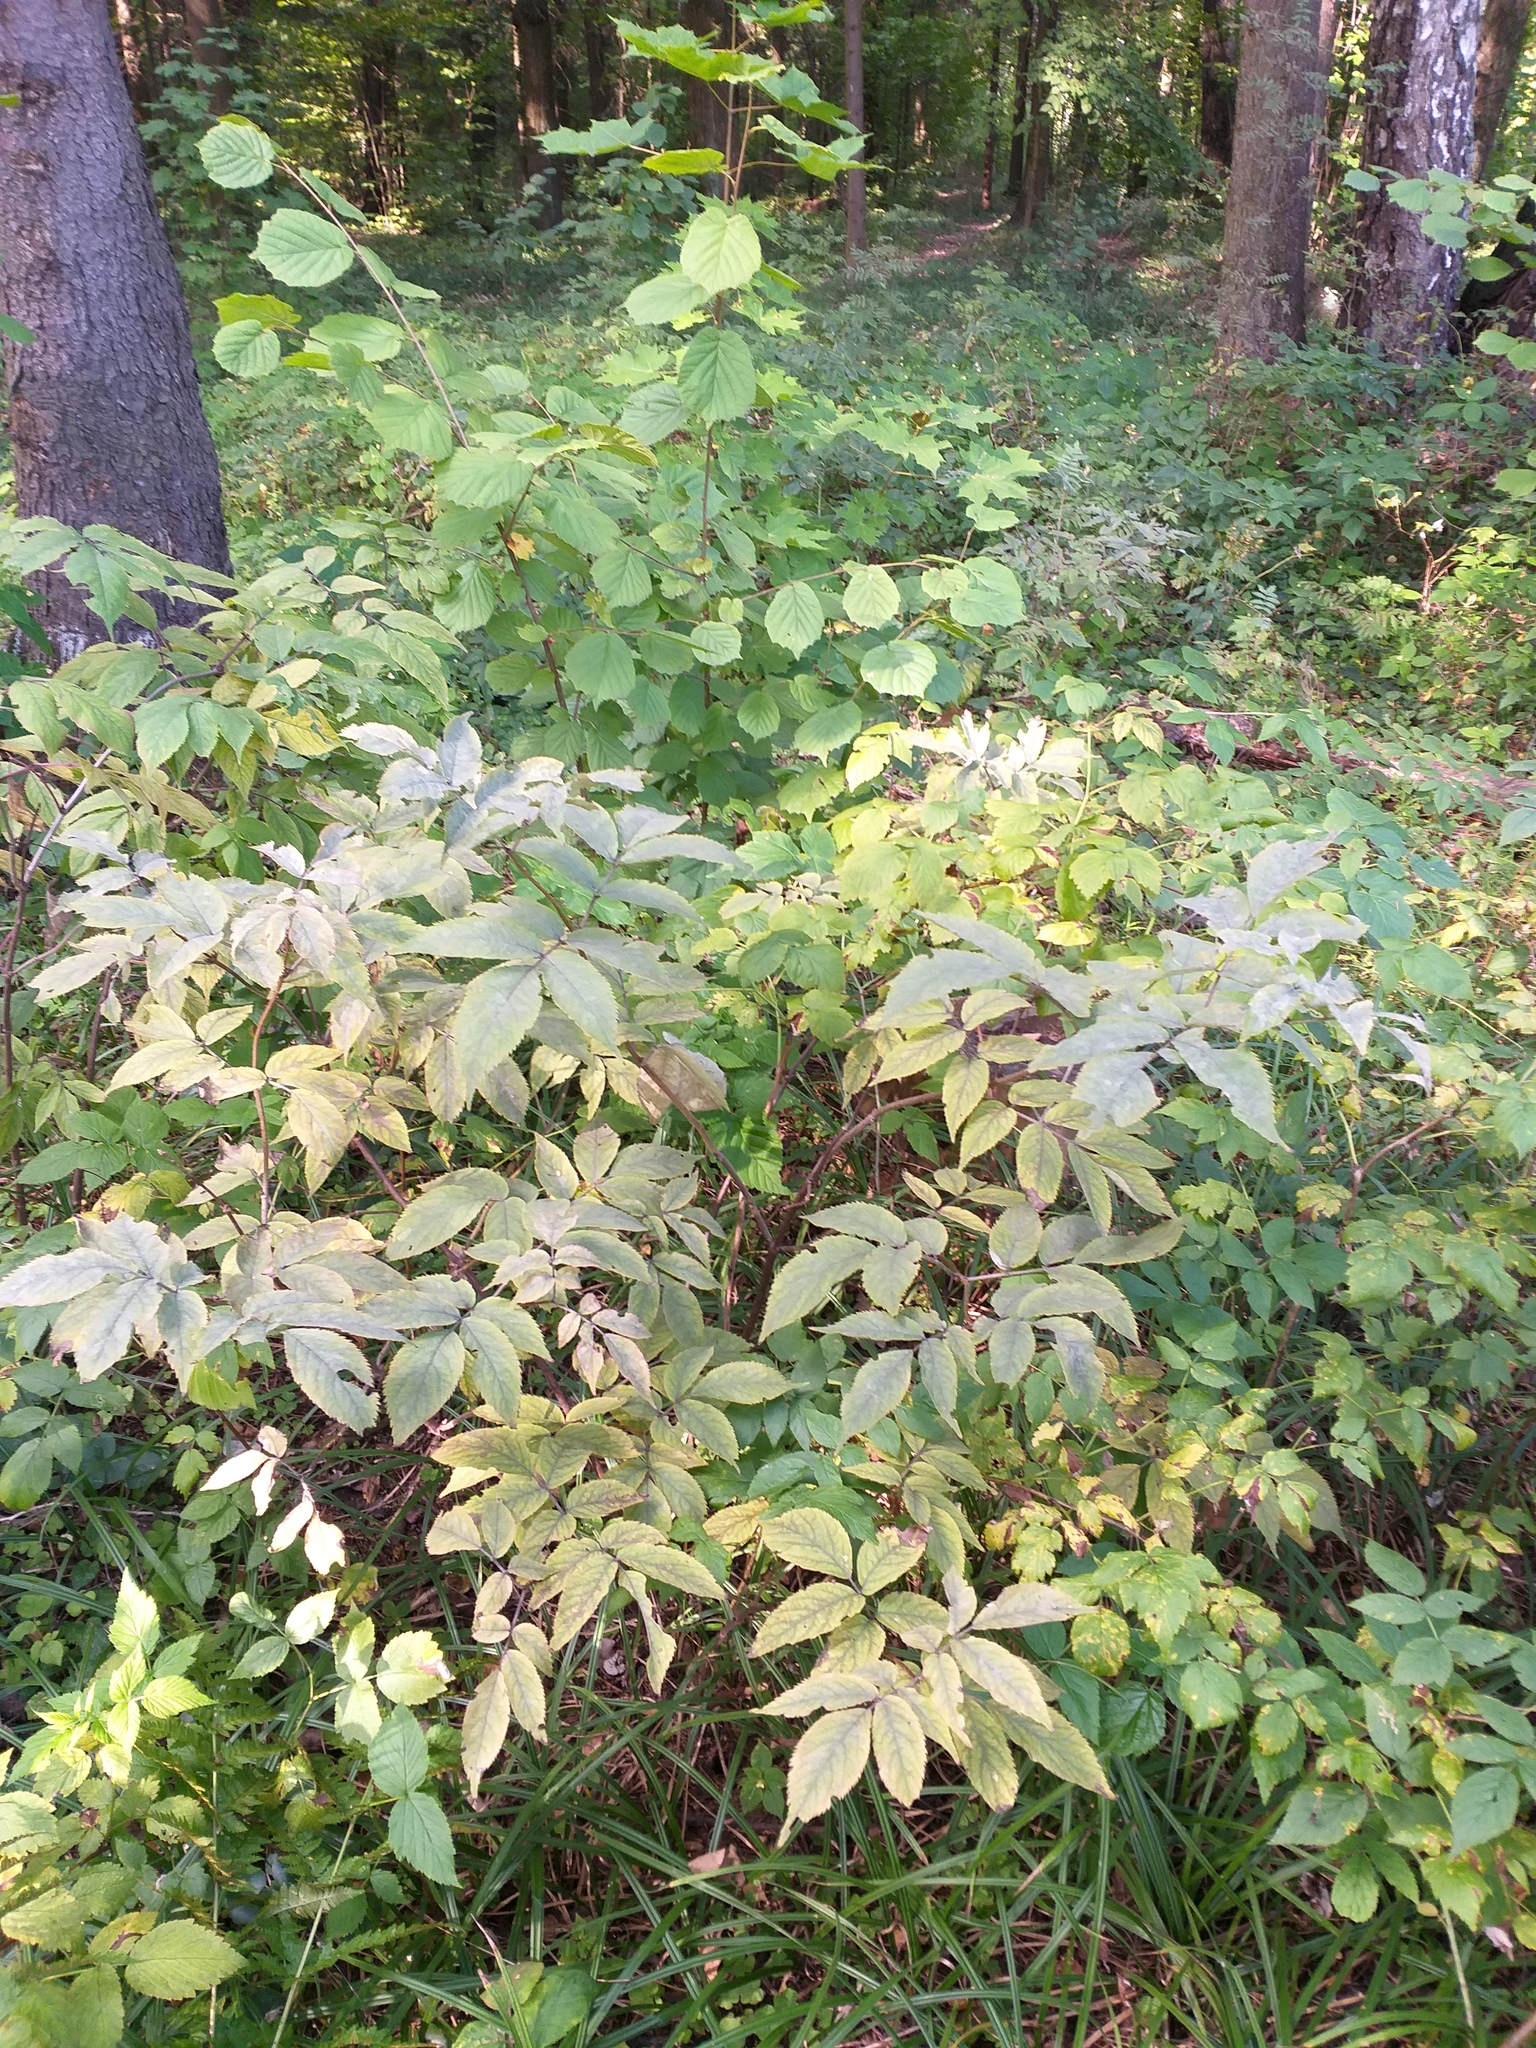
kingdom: Plantae
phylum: Tracheophyta
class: Magnoliopsida
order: Dipsacales
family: Viburnaceae
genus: Sambucus
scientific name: Sambucus racemosa
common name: Red-berried elder
